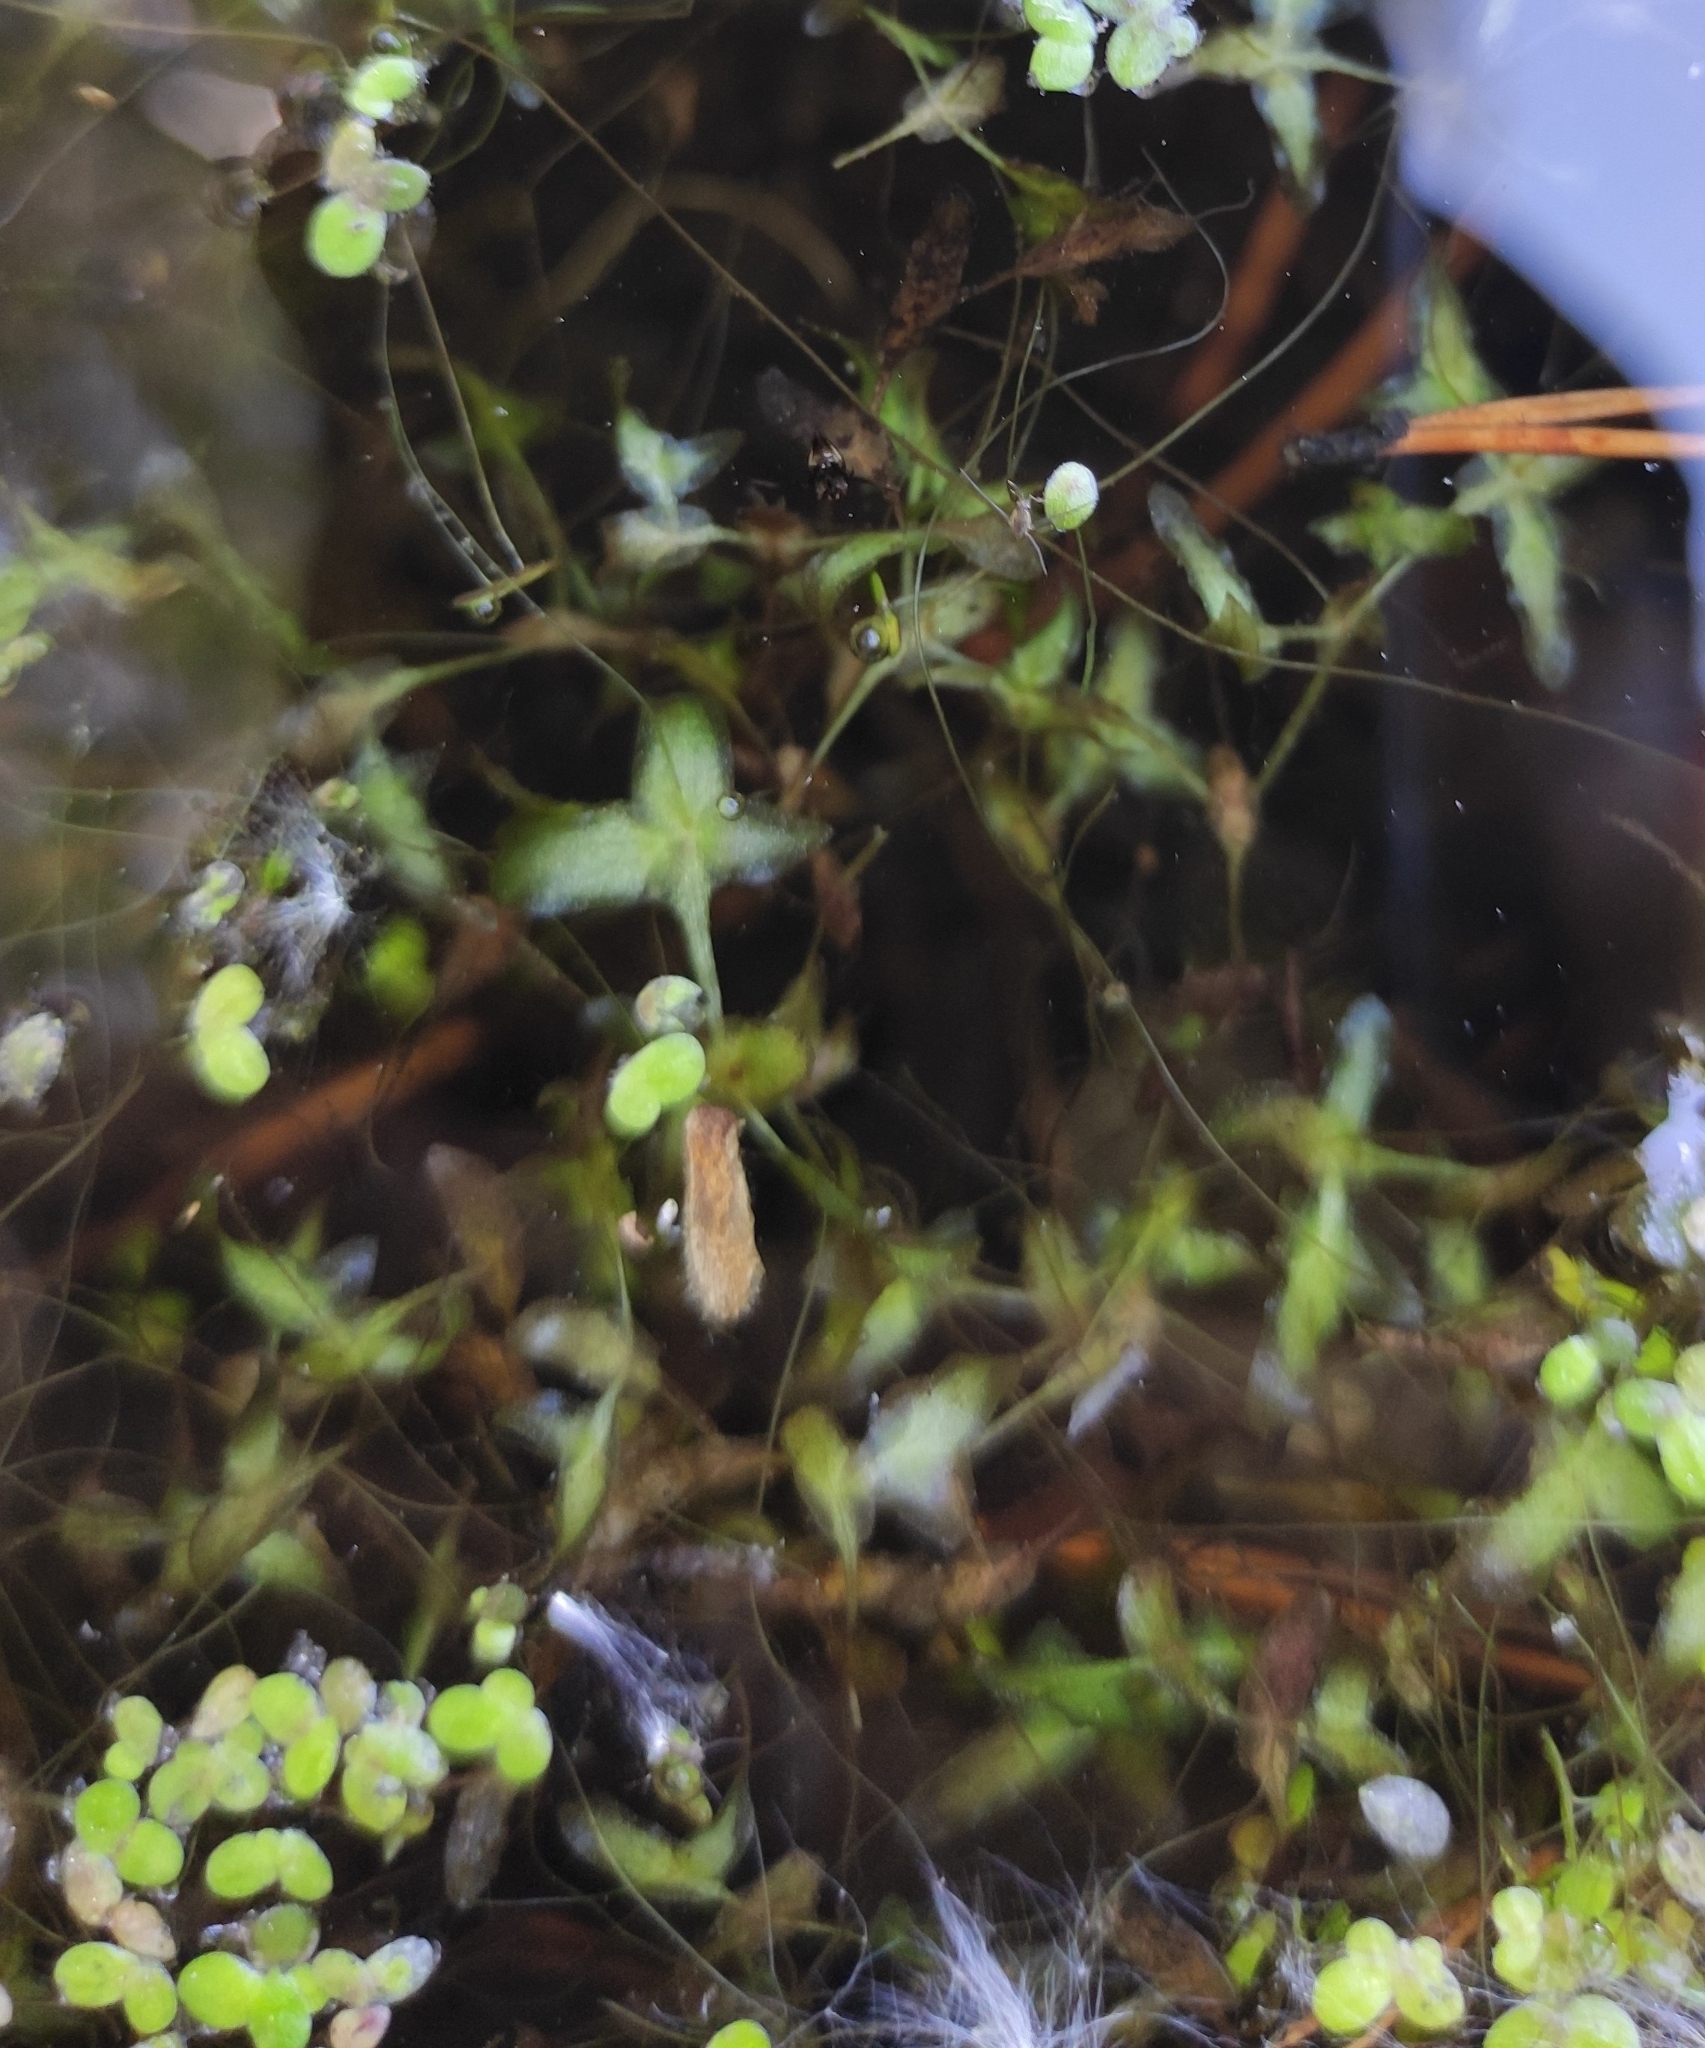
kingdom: Plantae
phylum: Tracheophyta
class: Liliopsida
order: Alismatales
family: Araceae
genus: Lemna
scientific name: Lemna trisulca
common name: Ivy-leaved duckweed
